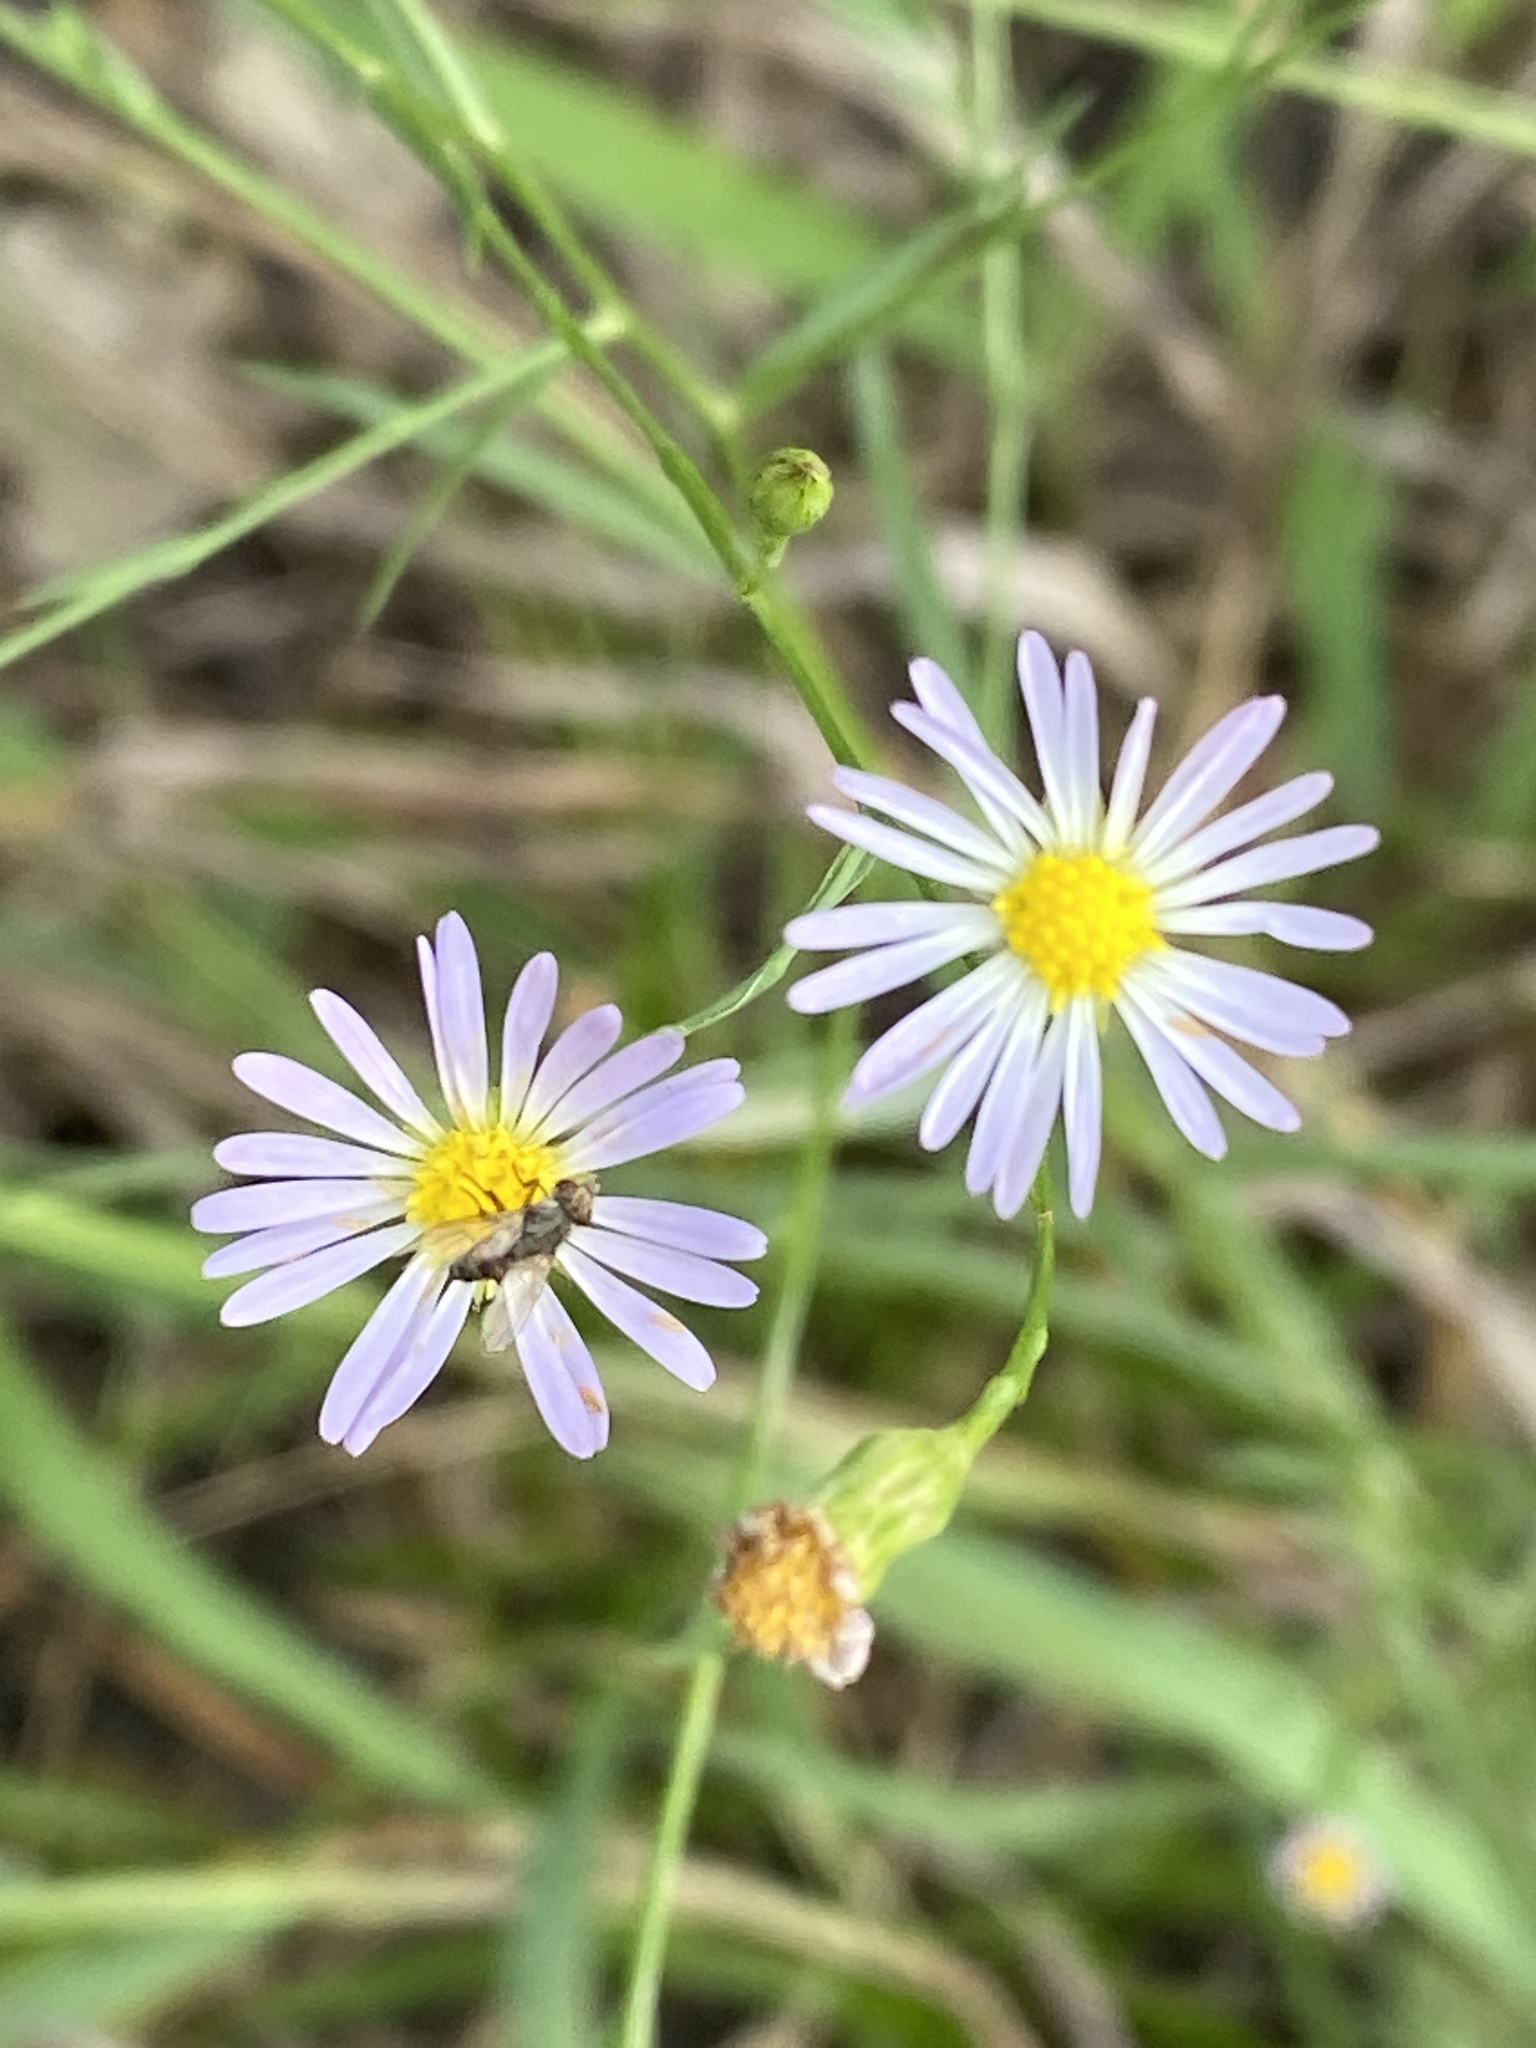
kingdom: Plantae
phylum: Tracheophyta
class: Magnoliopsida
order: Asterales
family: Asteraceae
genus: Symphyotrichum
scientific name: Symphyotrichum divaricatum
